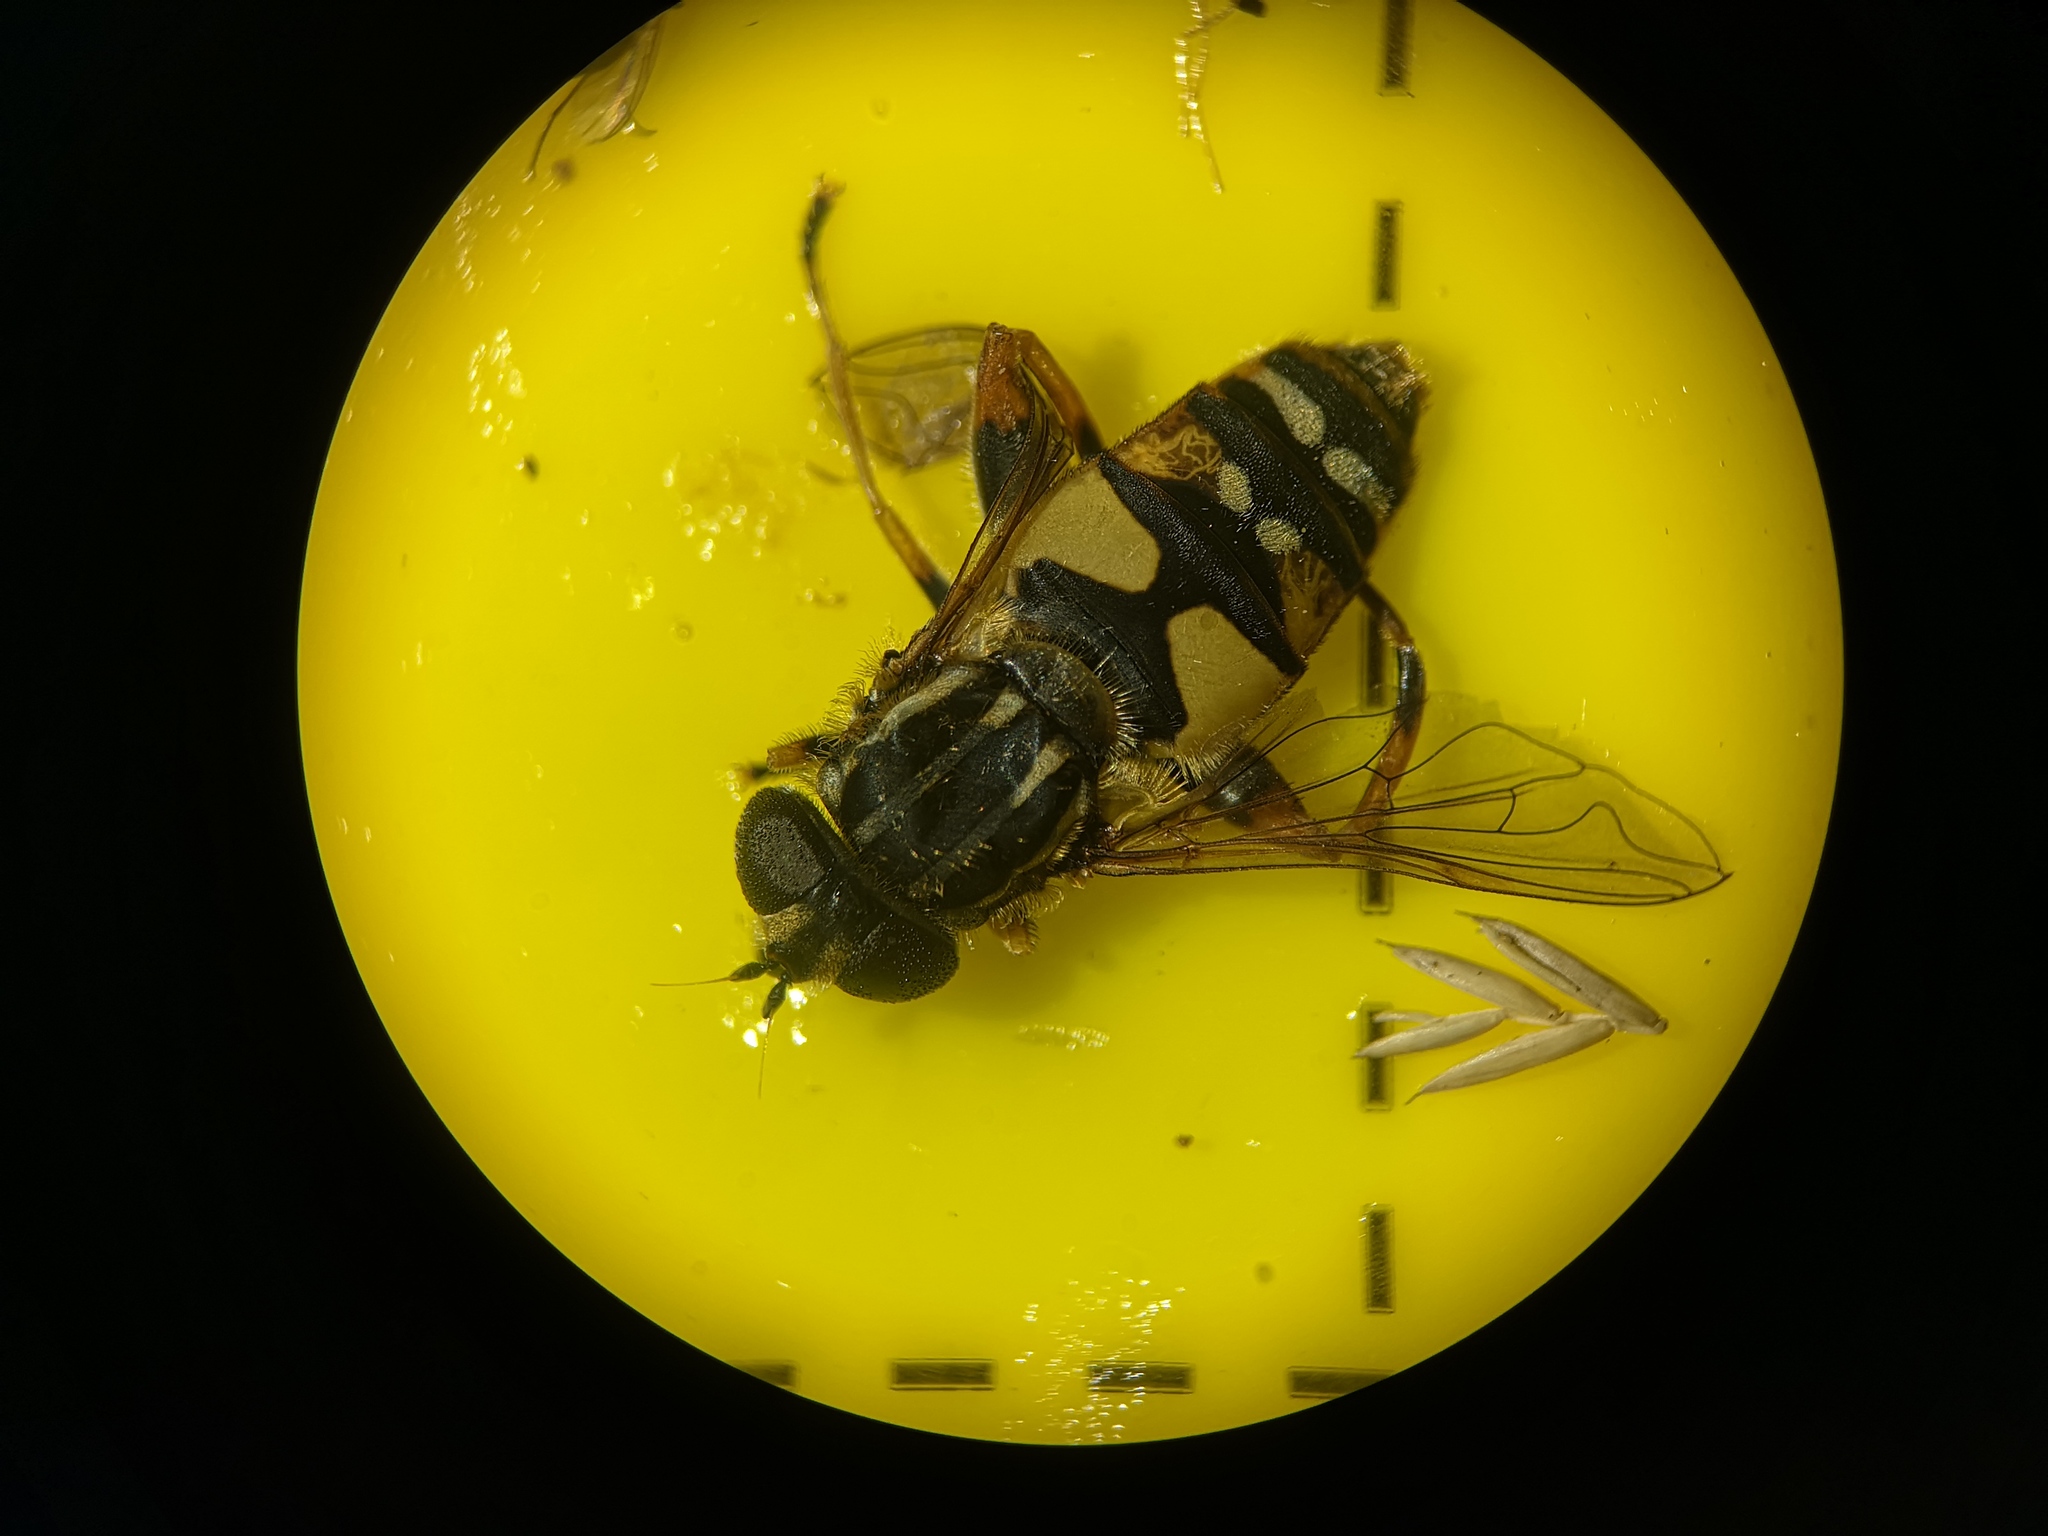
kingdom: Animalia
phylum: Arthropoda
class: Insecta
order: Diptera
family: Syrphidae
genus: Helophilus
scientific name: Helophilus pendulus
